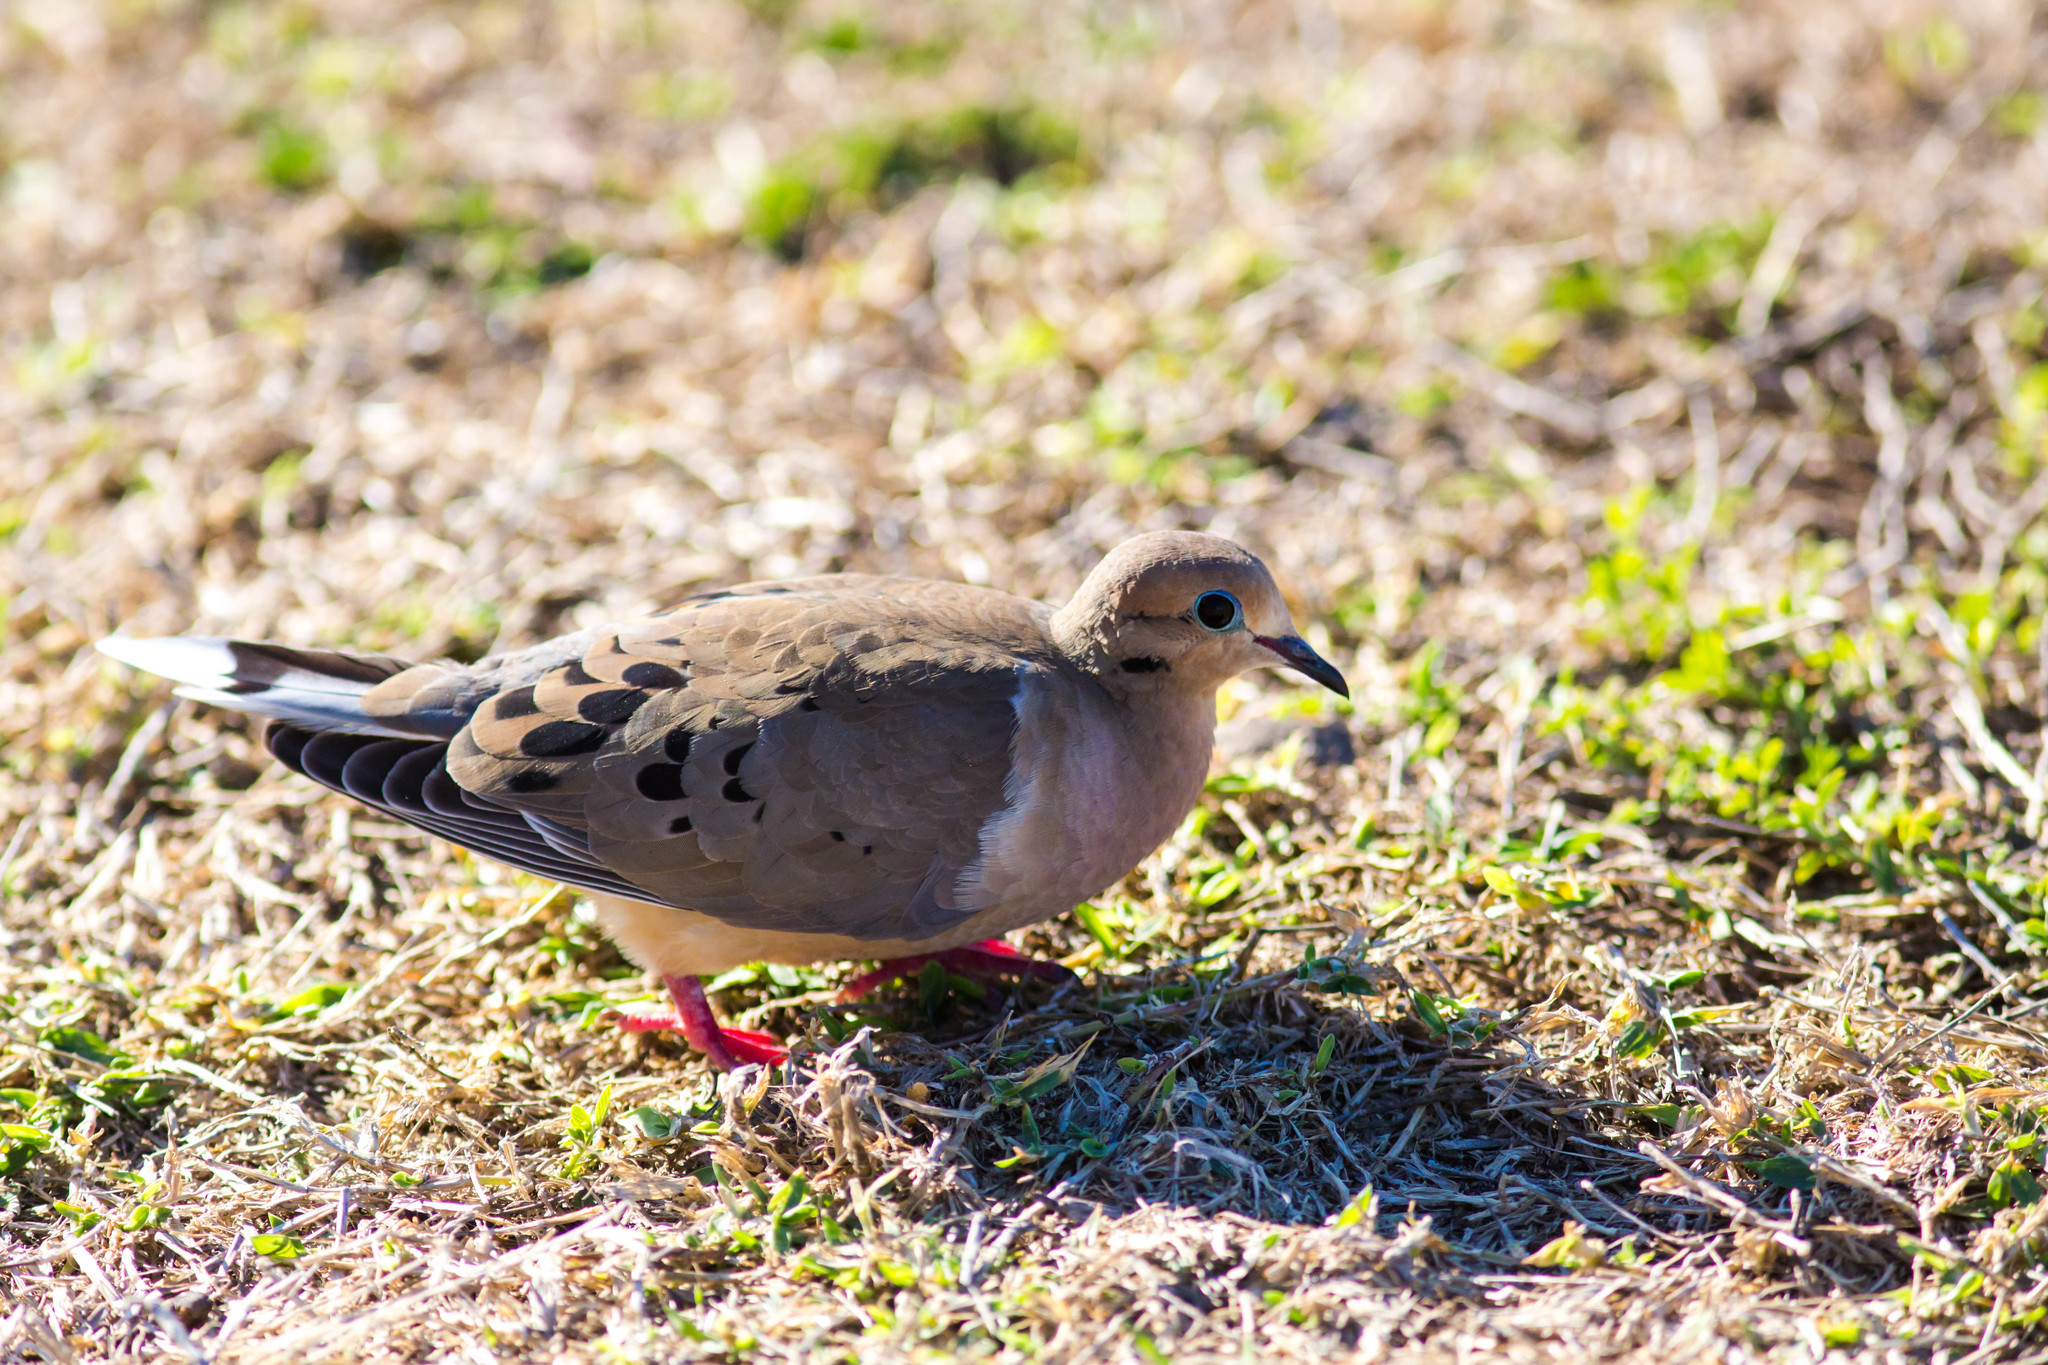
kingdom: Animalia
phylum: Chordata
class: Aves
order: Columbiformes
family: Columbidae
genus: Zenaida
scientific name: Zenaida macroura
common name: Mourning dove
